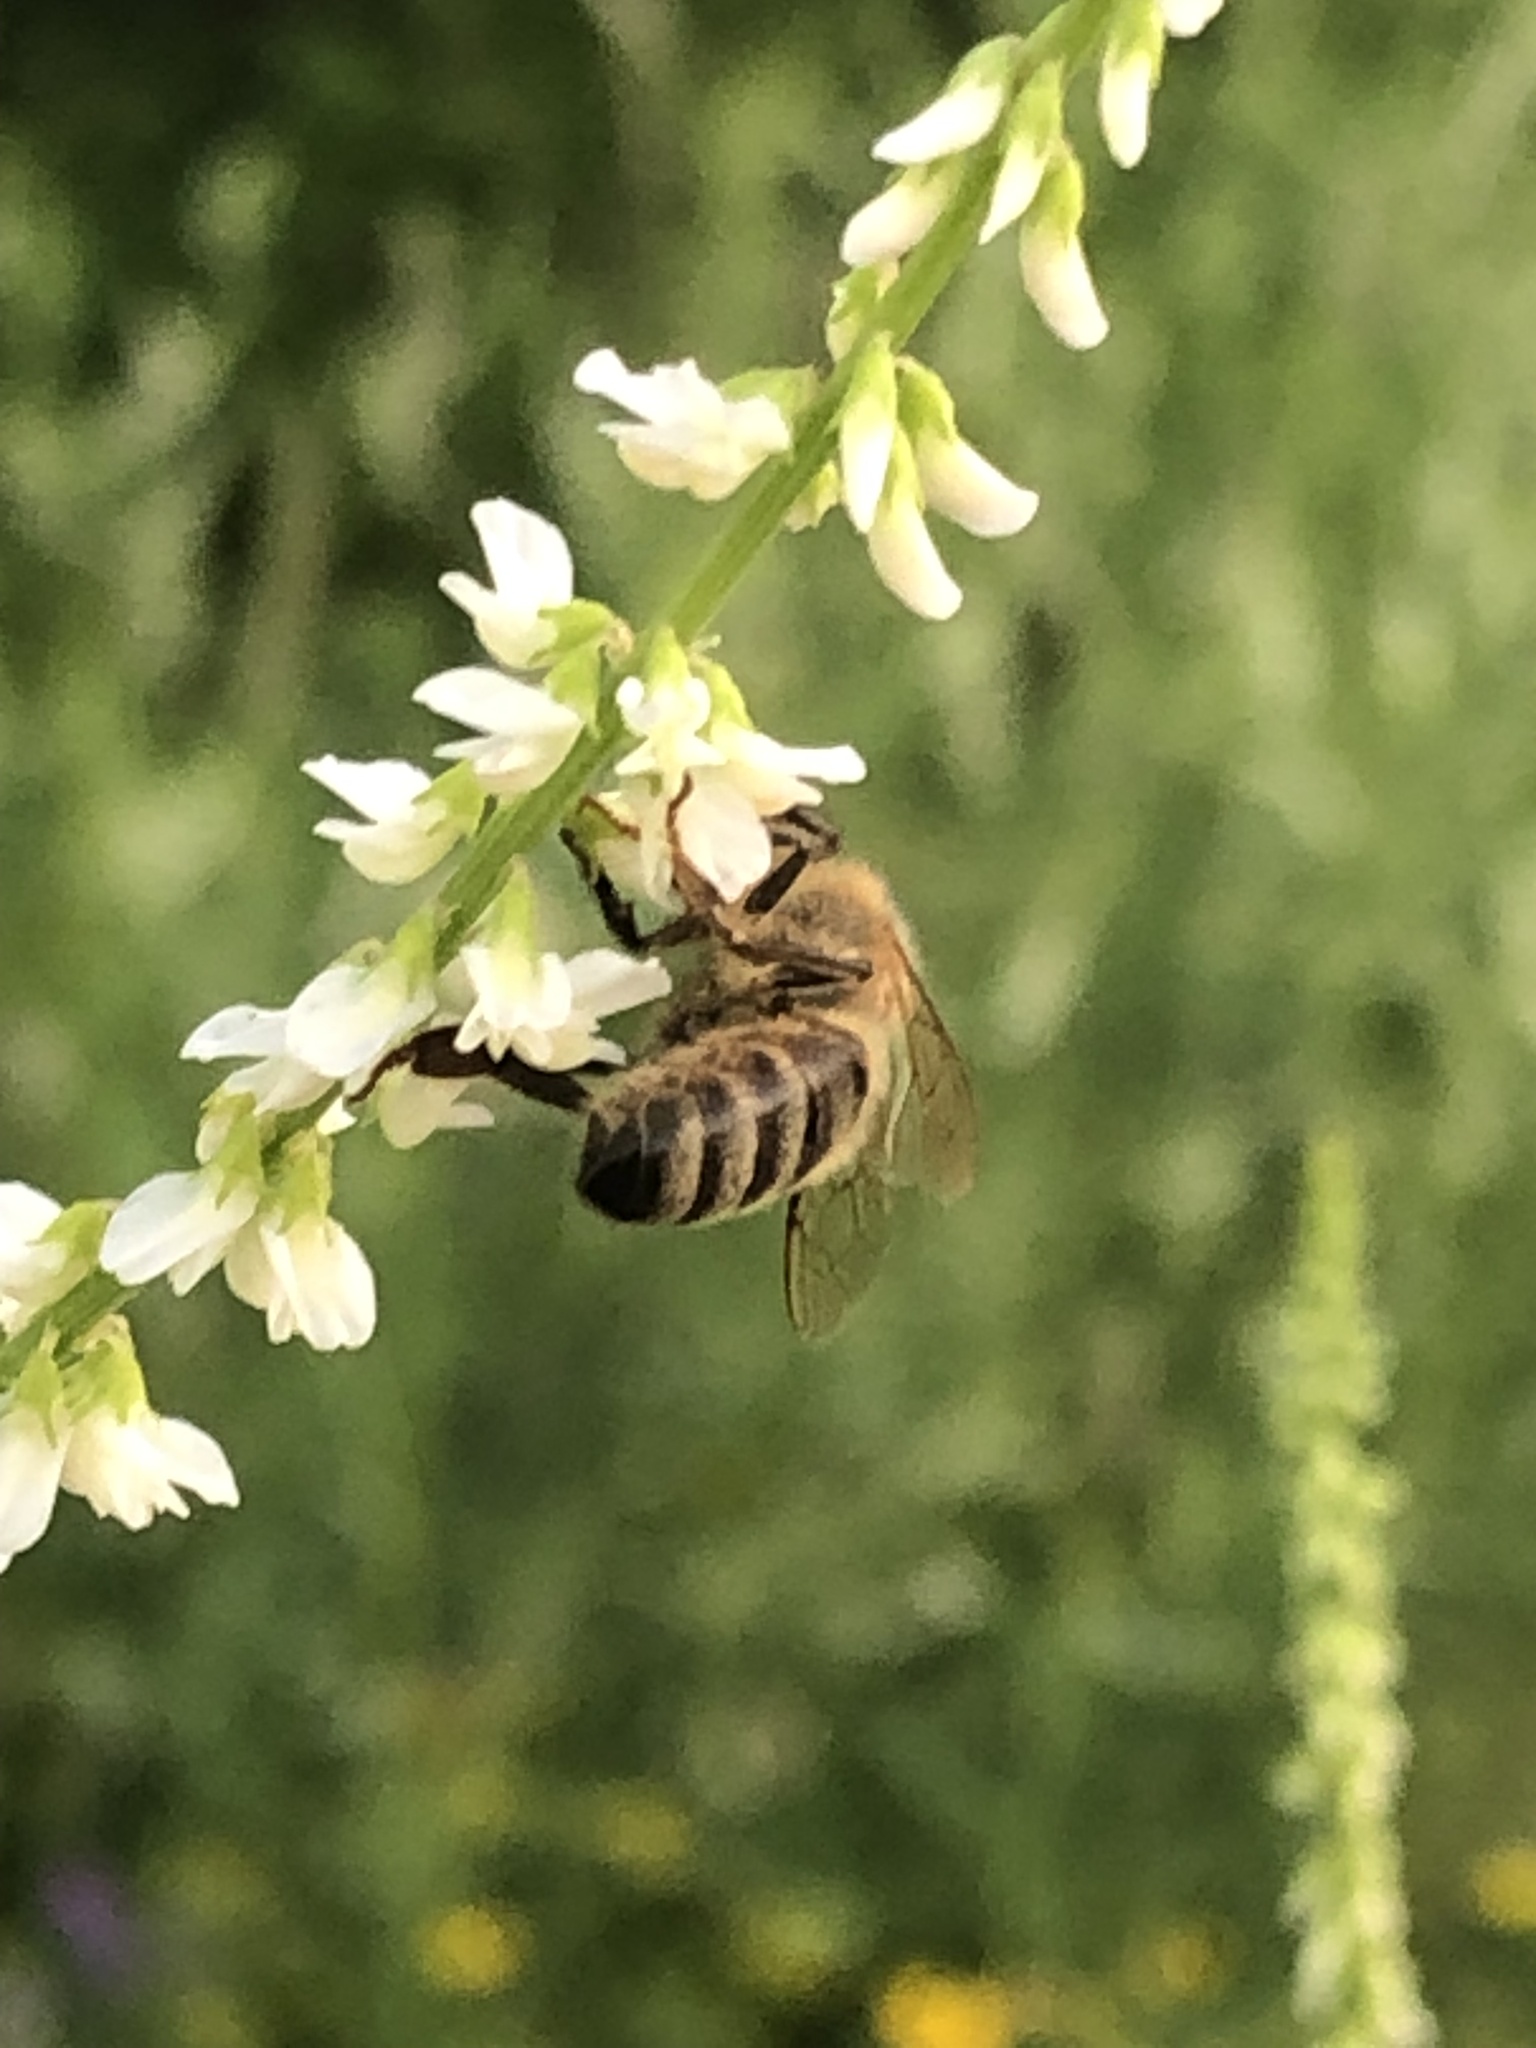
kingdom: Animalia
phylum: Arthropoda
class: Insecta
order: Hymenoptera
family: Apidae
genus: Apis
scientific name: Apis mellifera
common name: Honey bee
